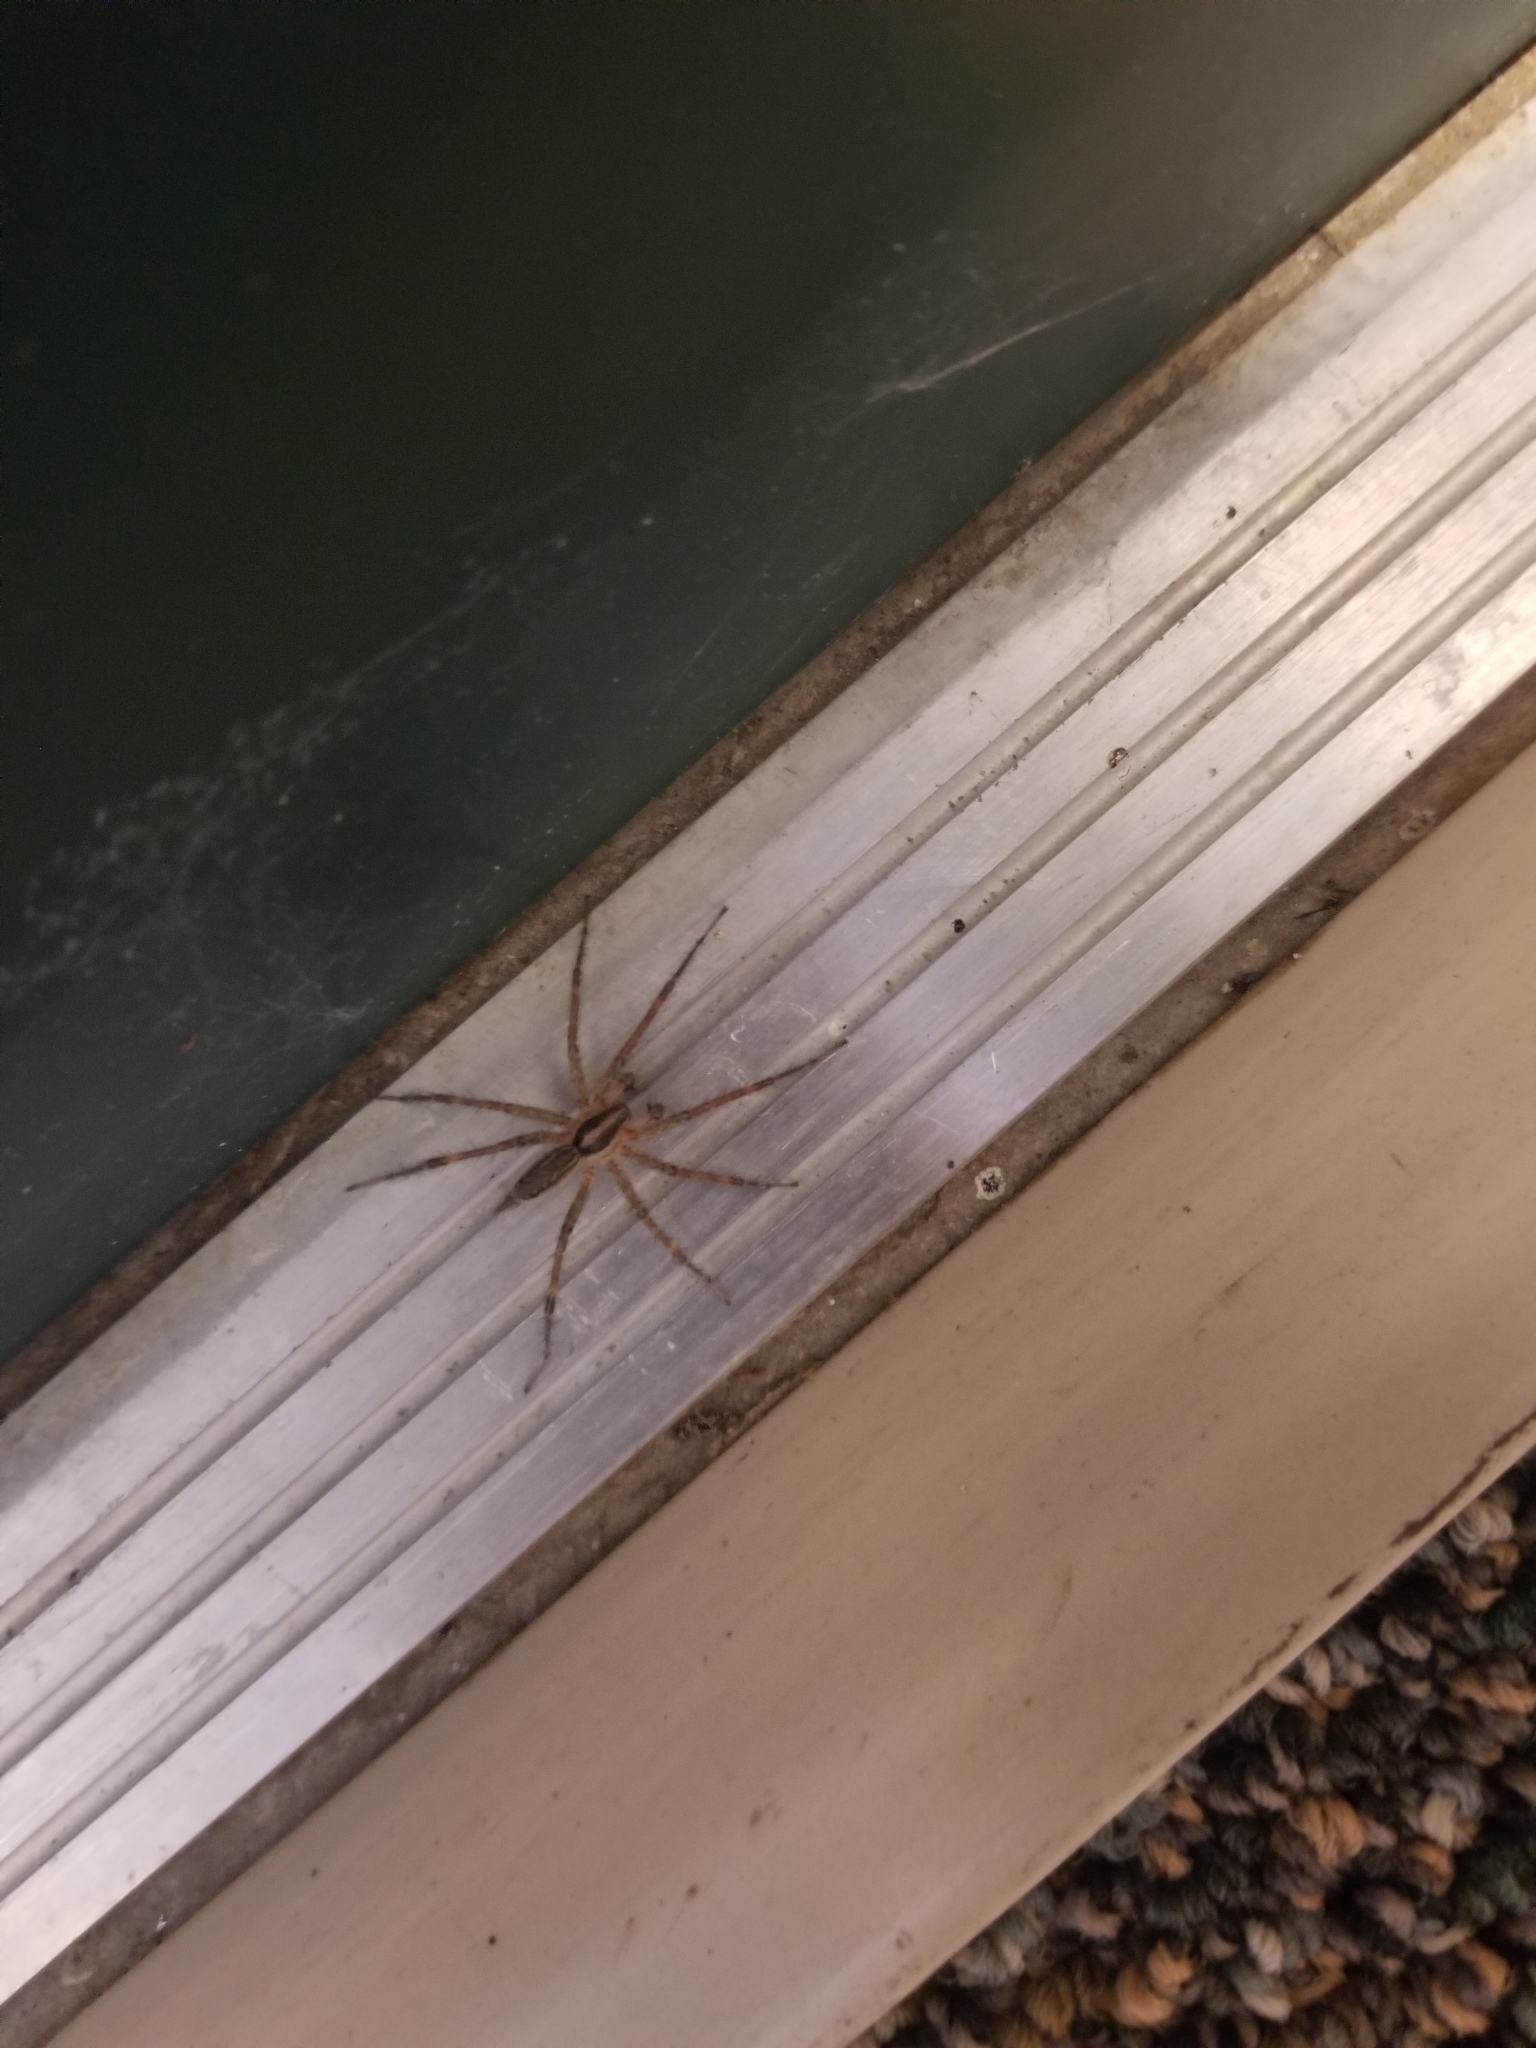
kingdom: Animalia
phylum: Arthropoda
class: Arachnida
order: Araneae
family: Agelenidae
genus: Agelenopsis
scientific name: Agelenopsis
